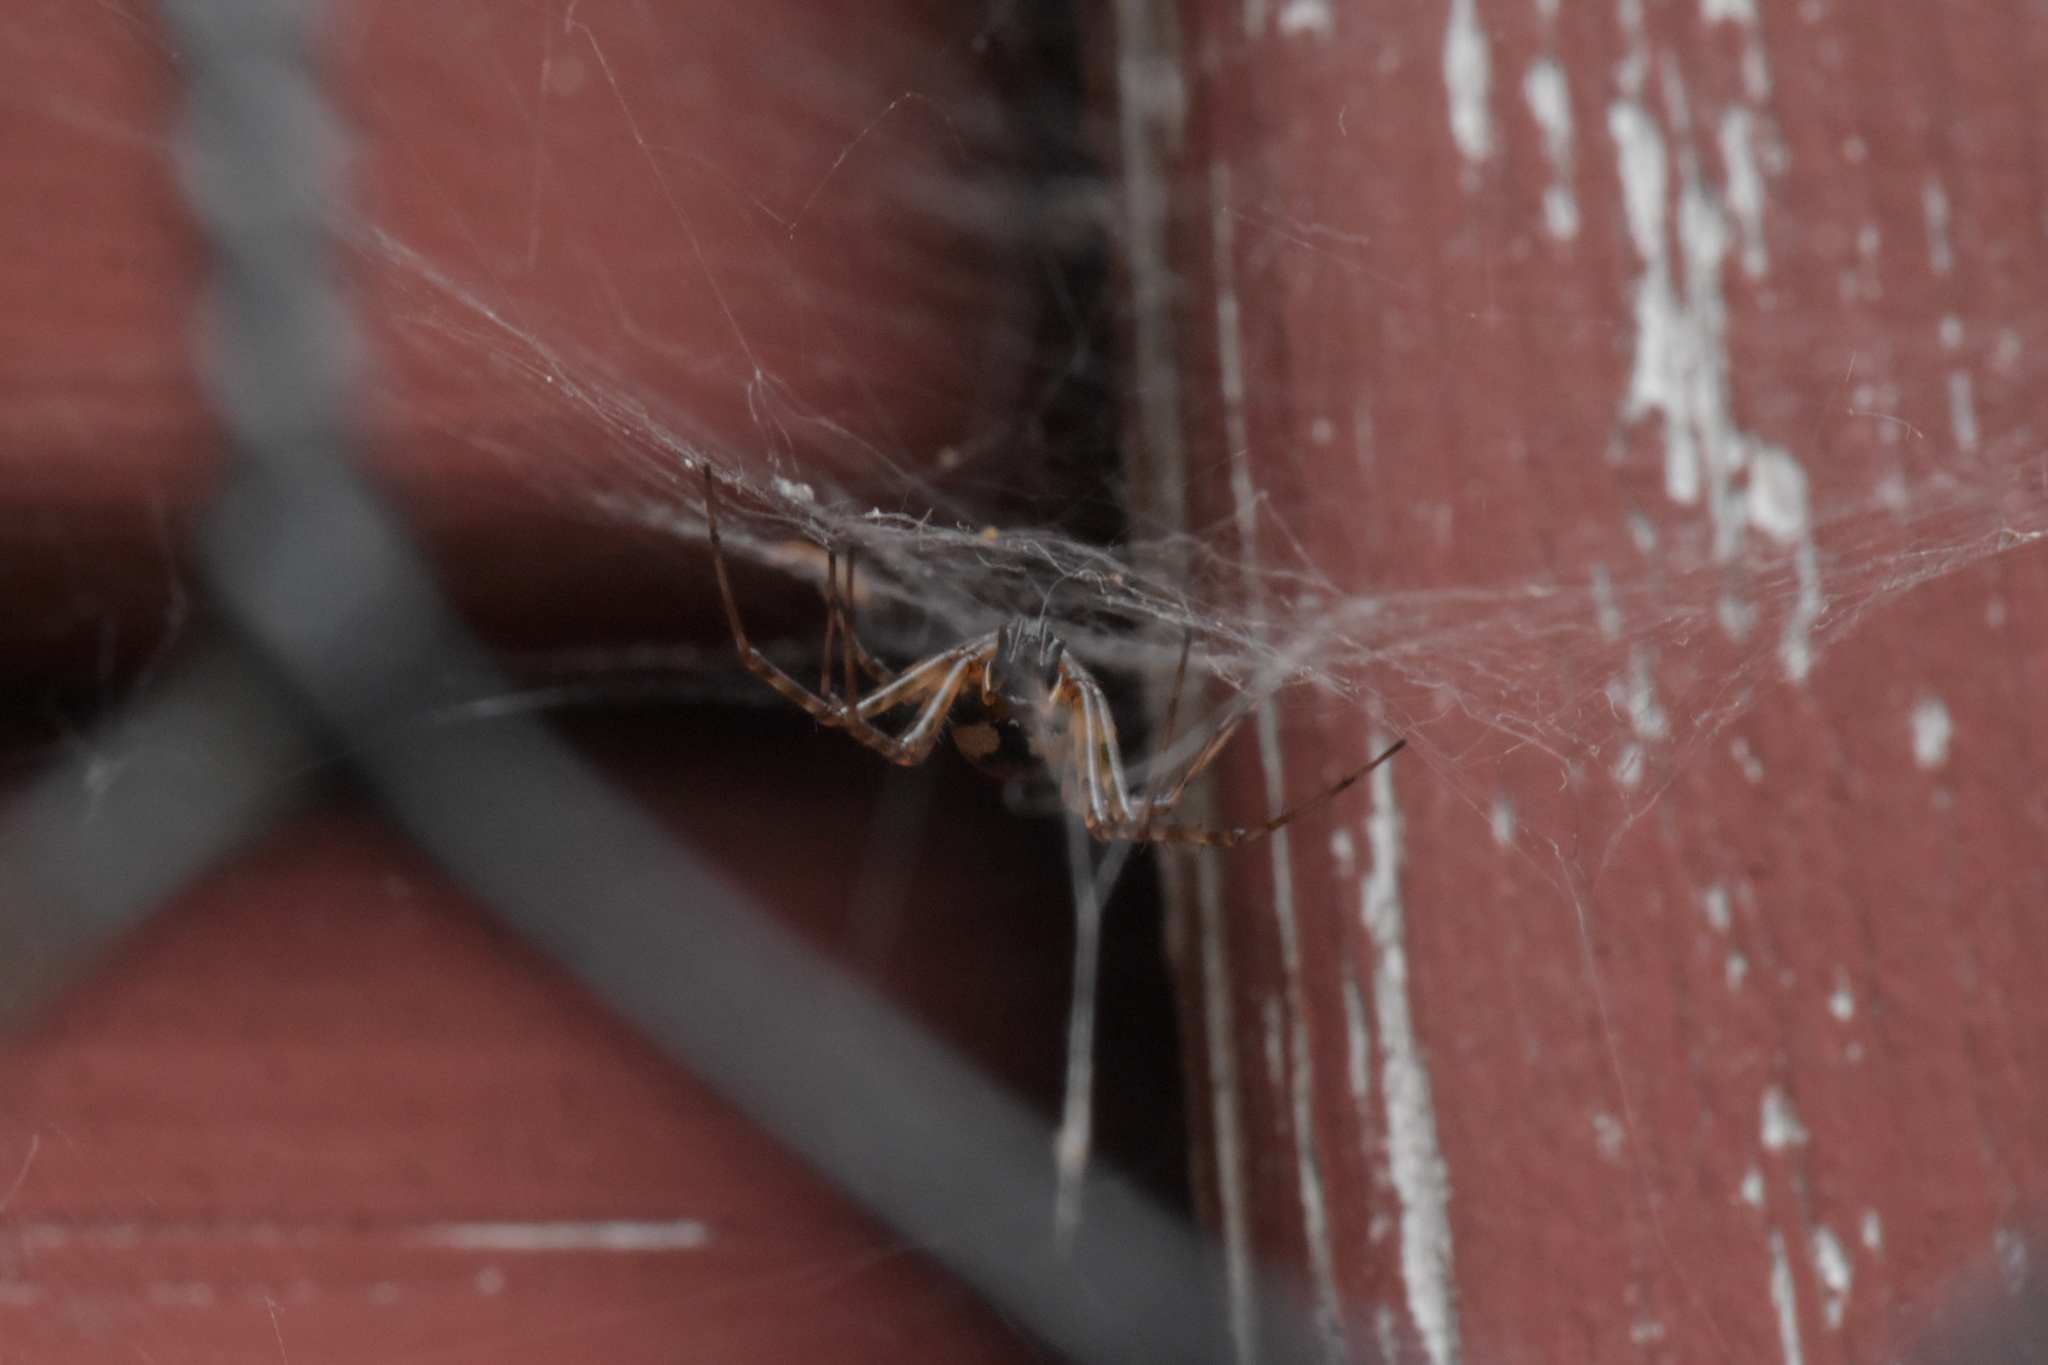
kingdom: Animalia
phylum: Arthropoda
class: Arachnida
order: Araneae
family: Linyphiidae
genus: Neriene
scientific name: Neriene montana
